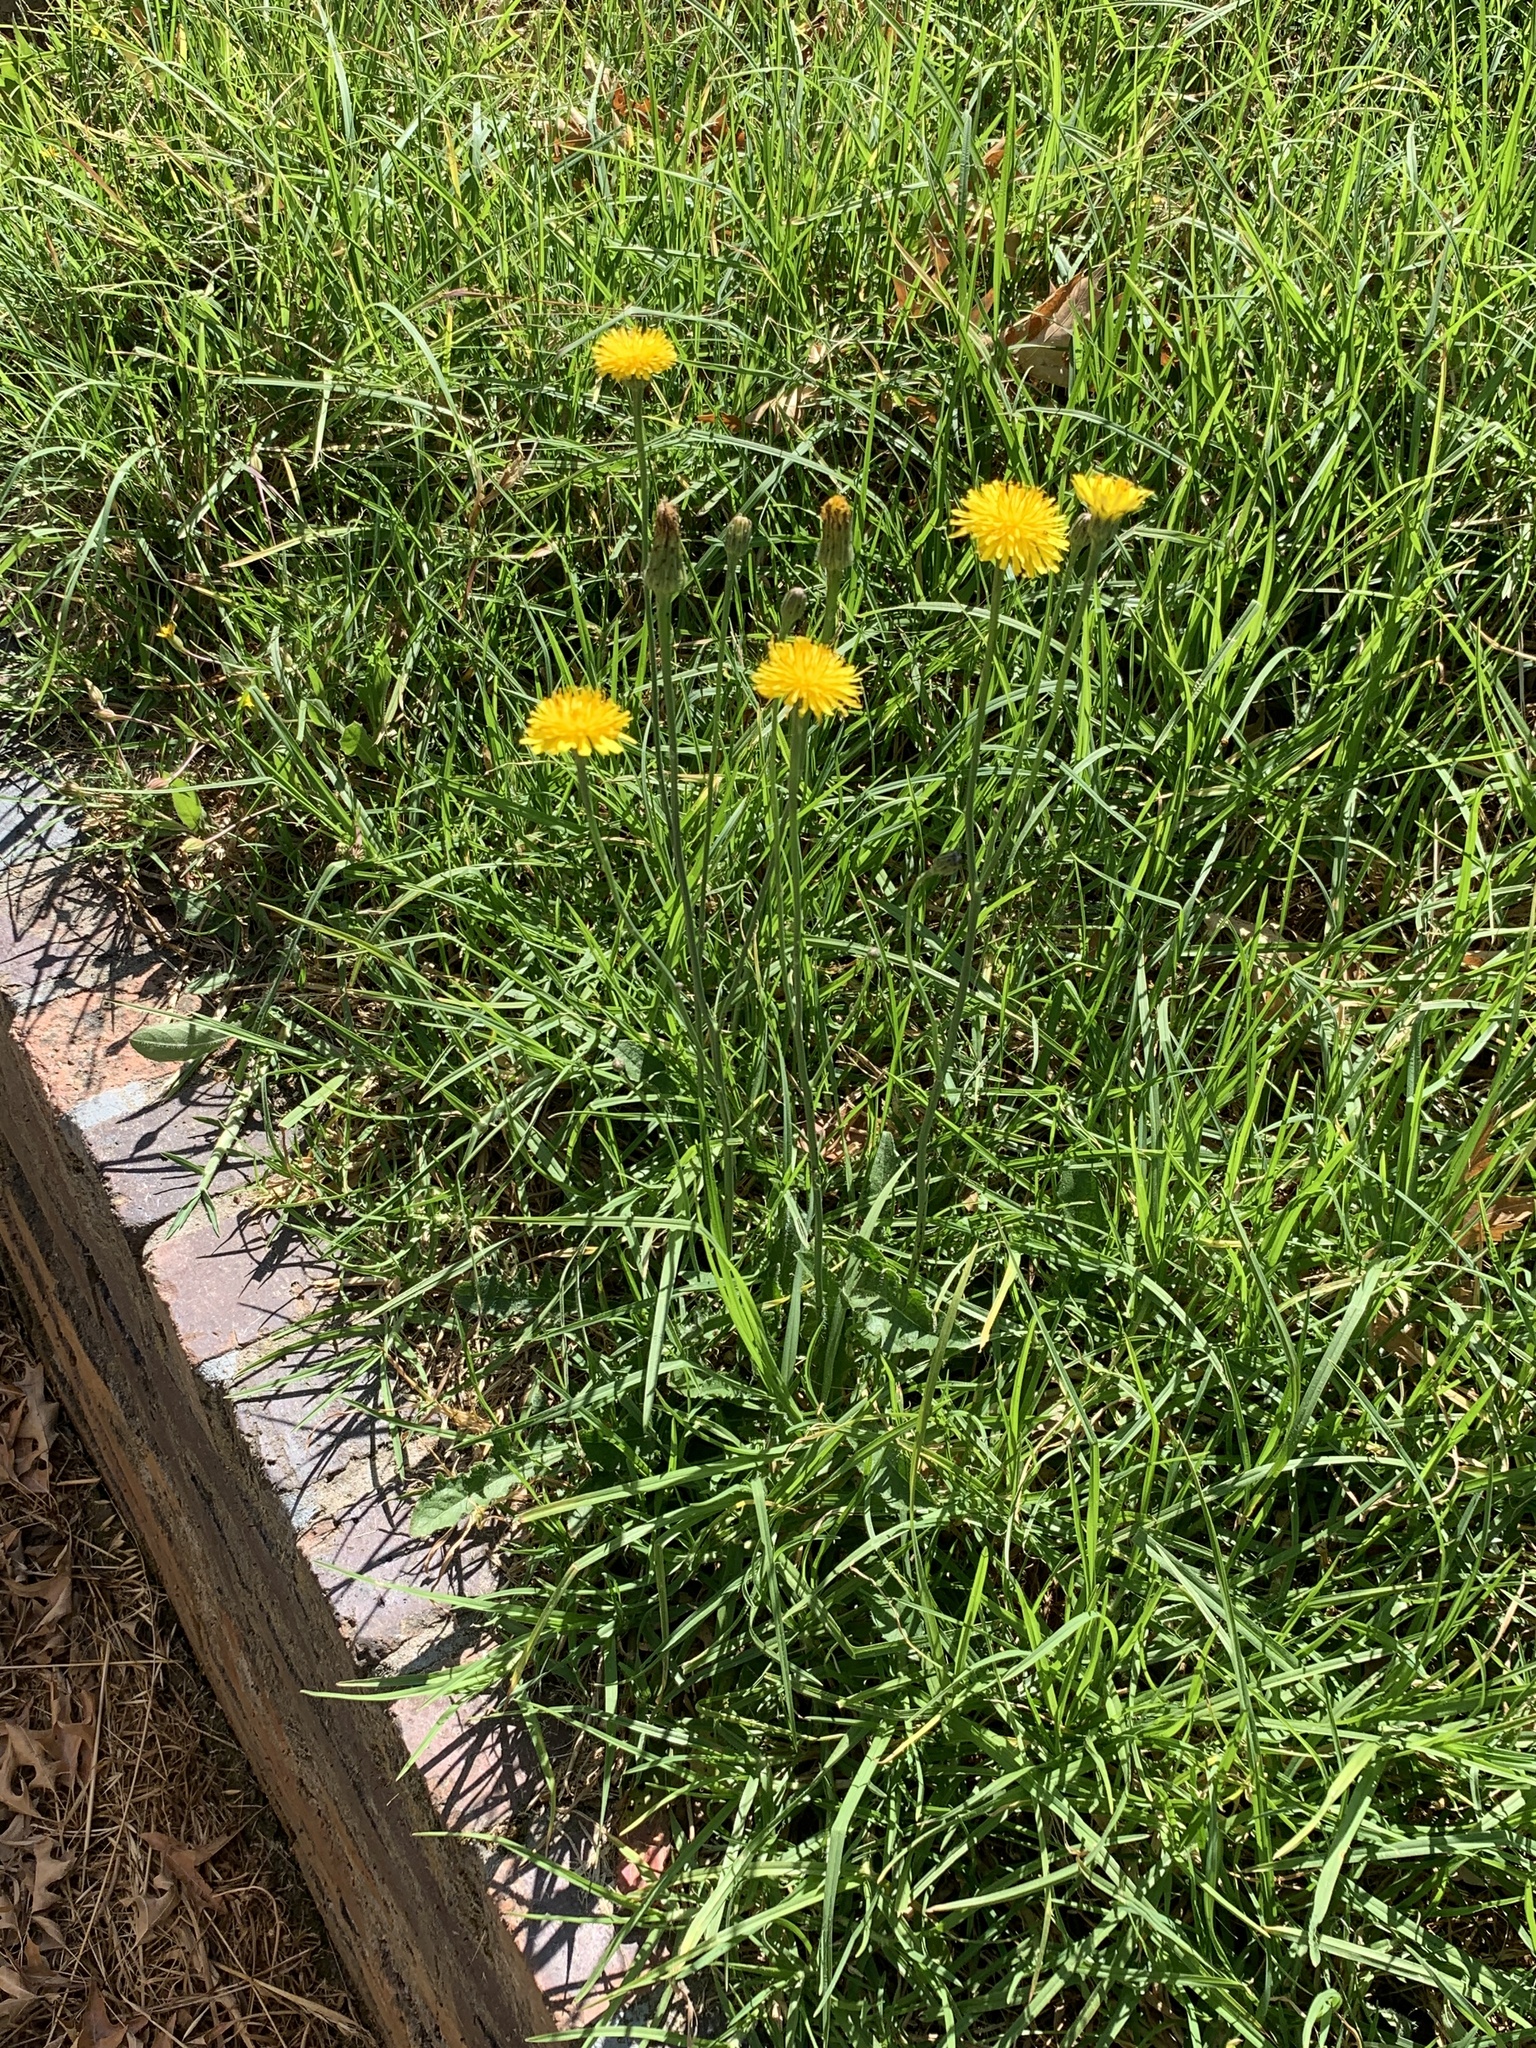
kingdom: Plantae
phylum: Tracheophyta
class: Magnoliopsida
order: Asterales
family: Asteraceae
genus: Hypochaeris
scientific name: Hypochaeris radicata
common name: Flatweed
